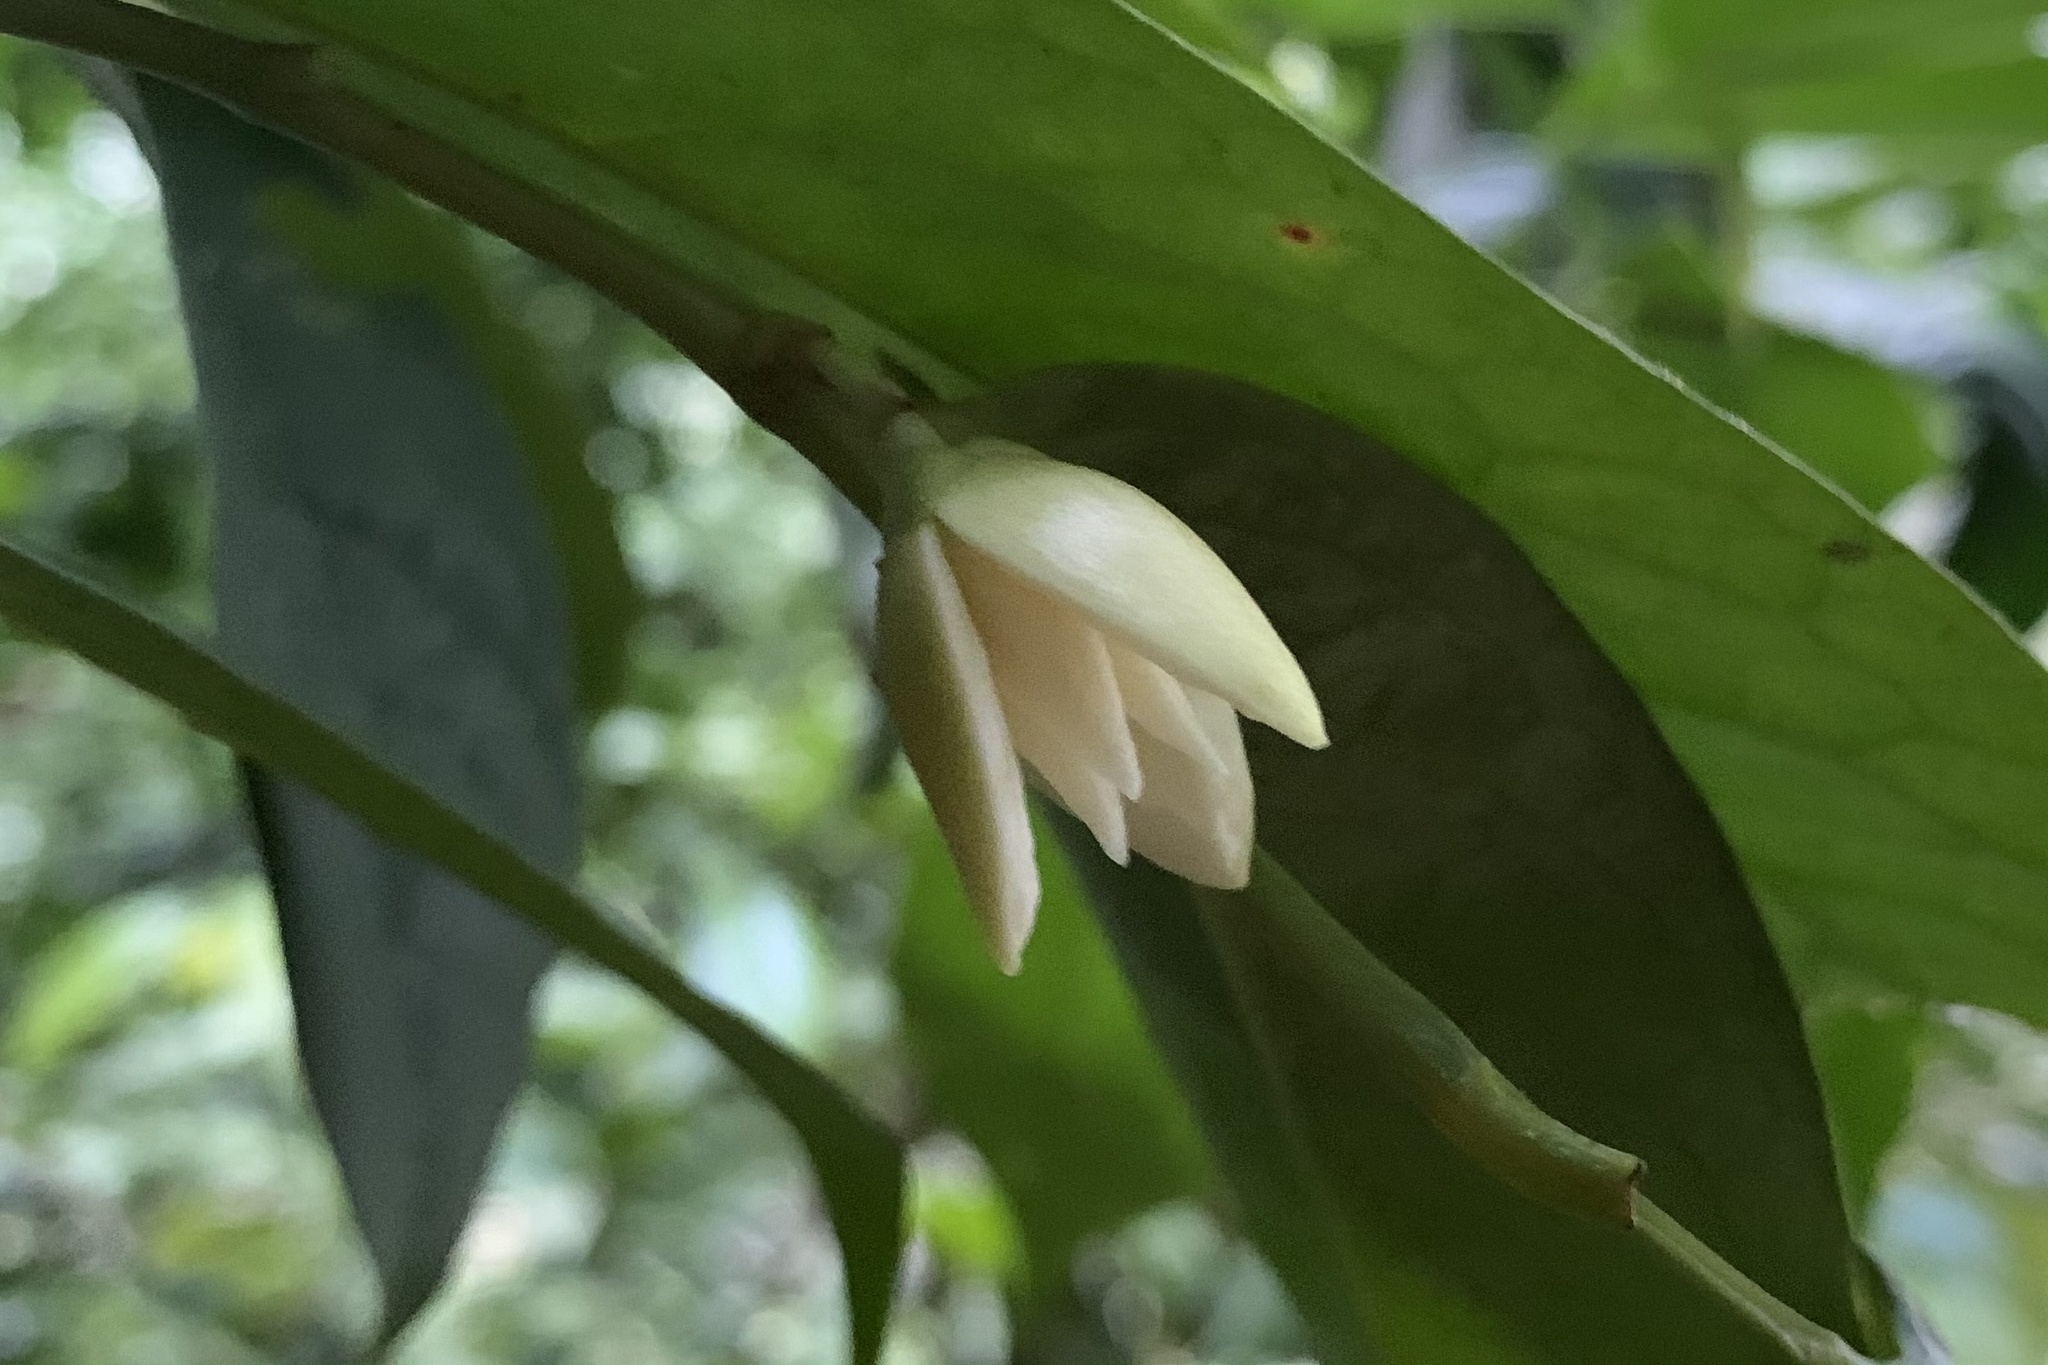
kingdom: Plantae
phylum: Tracheophyta
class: Magnoliopsida
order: Magnoliales
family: Annonaceae
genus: Anaxagorea
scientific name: Anaxagorea javanica
